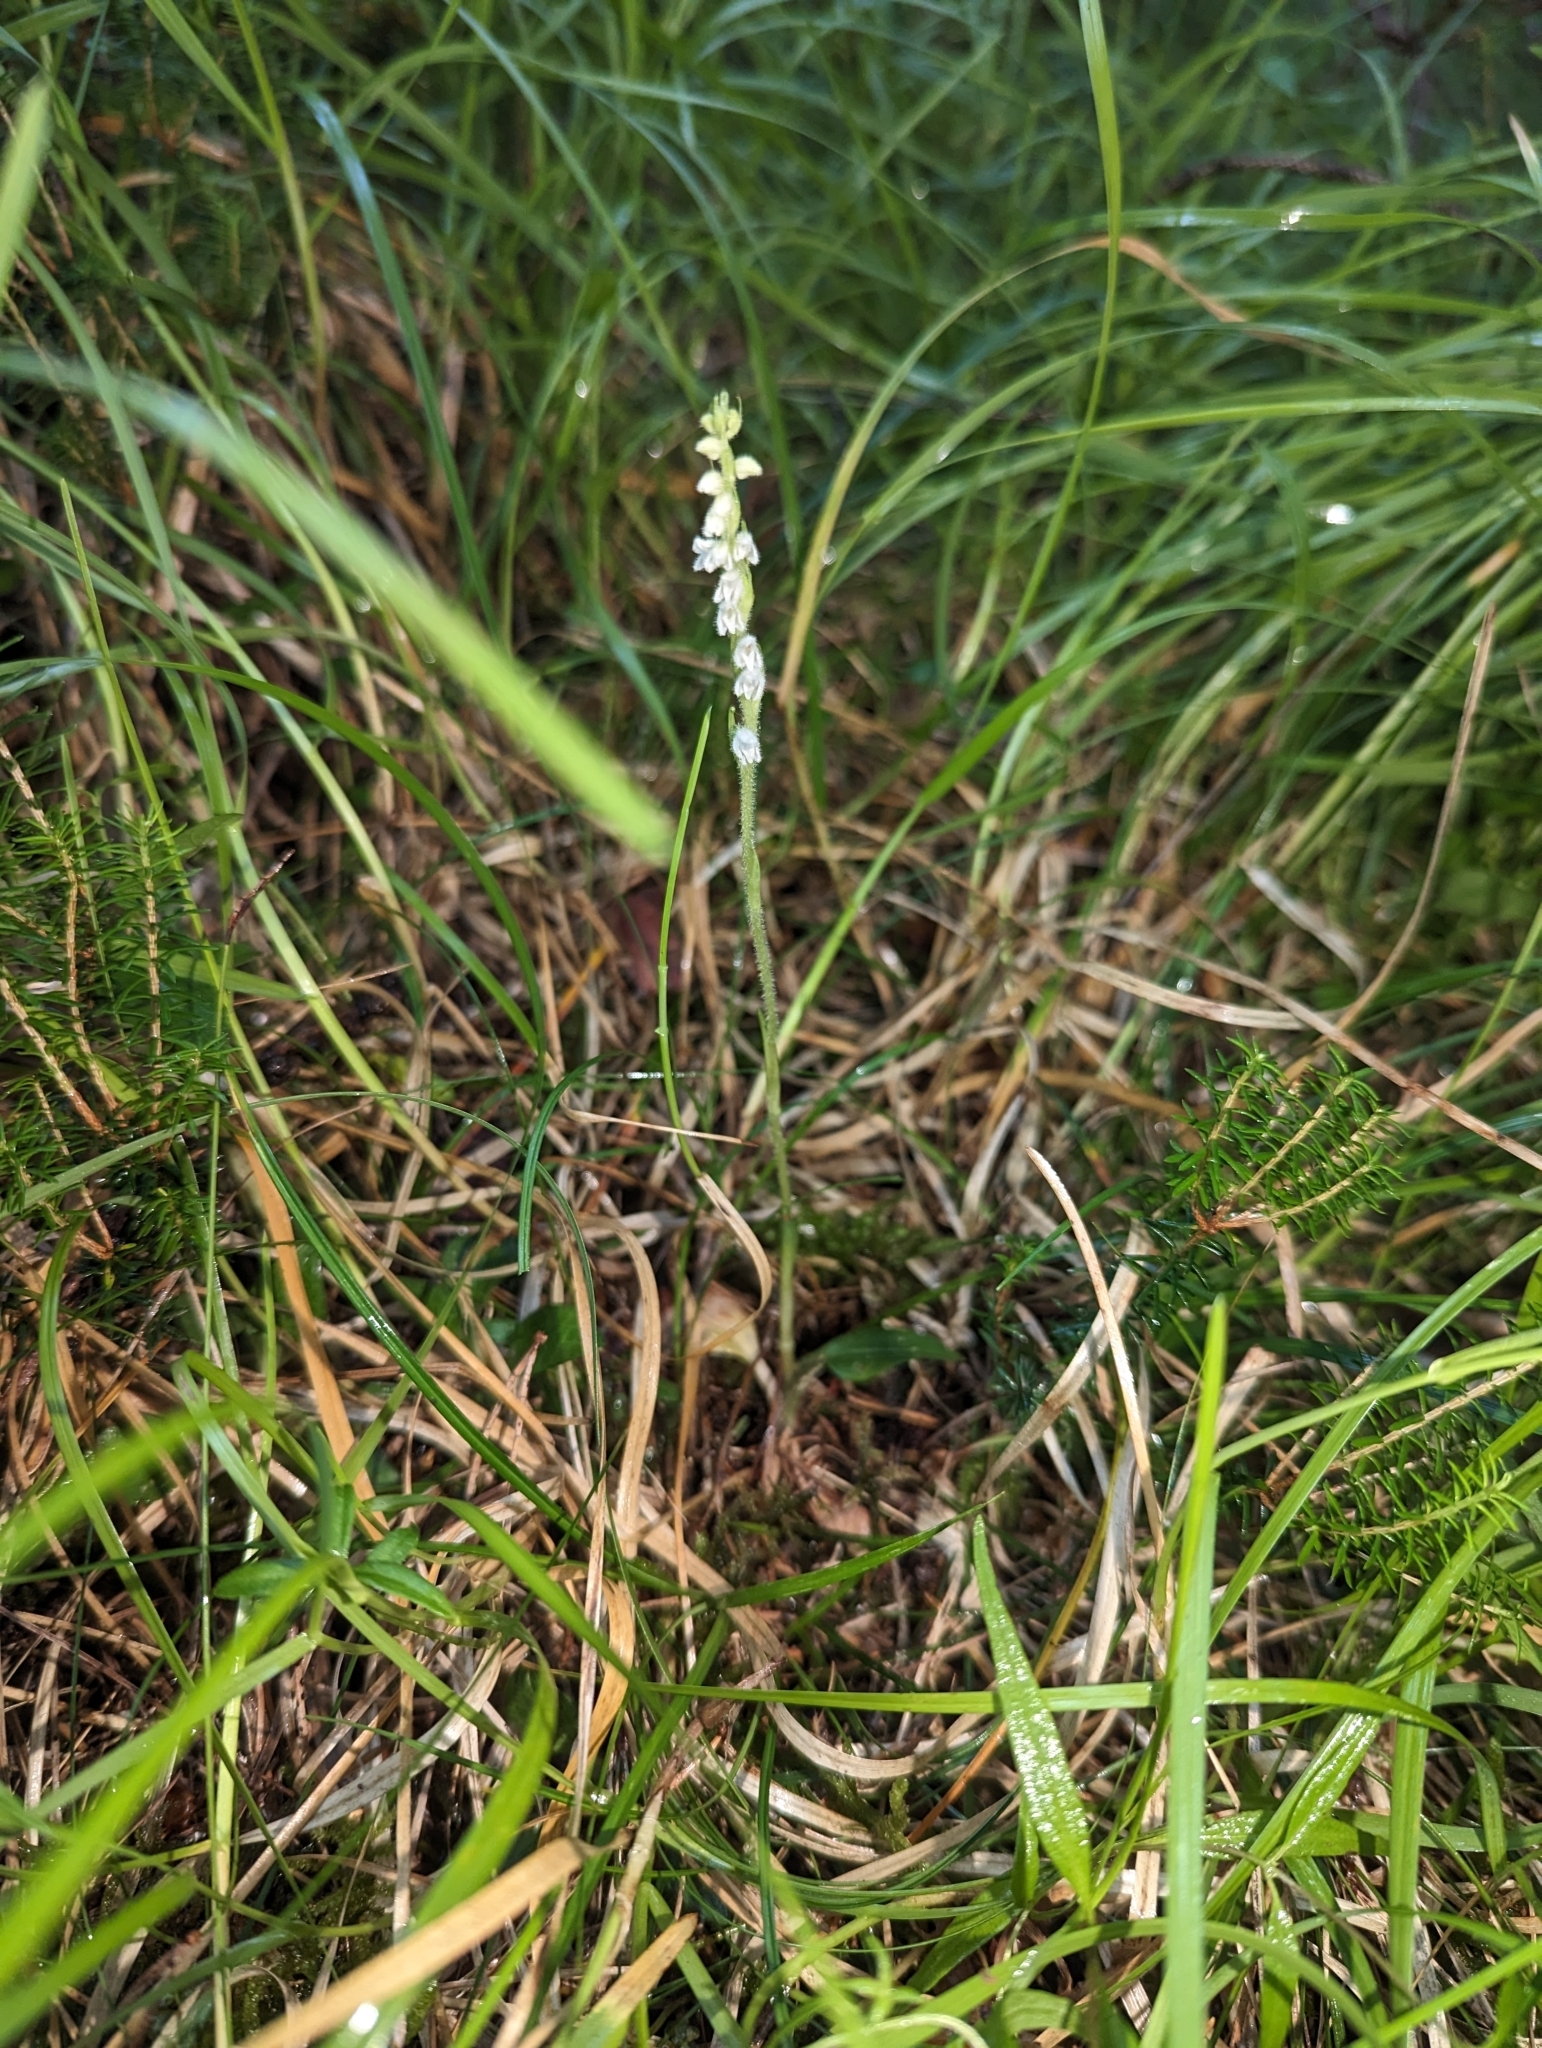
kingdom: Plantae
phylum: Tracheophyta
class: Liliopsida
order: Asparagales
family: Orchidaceae
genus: Goodyera
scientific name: Goodyera repens
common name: Creeping lady's-tresses
